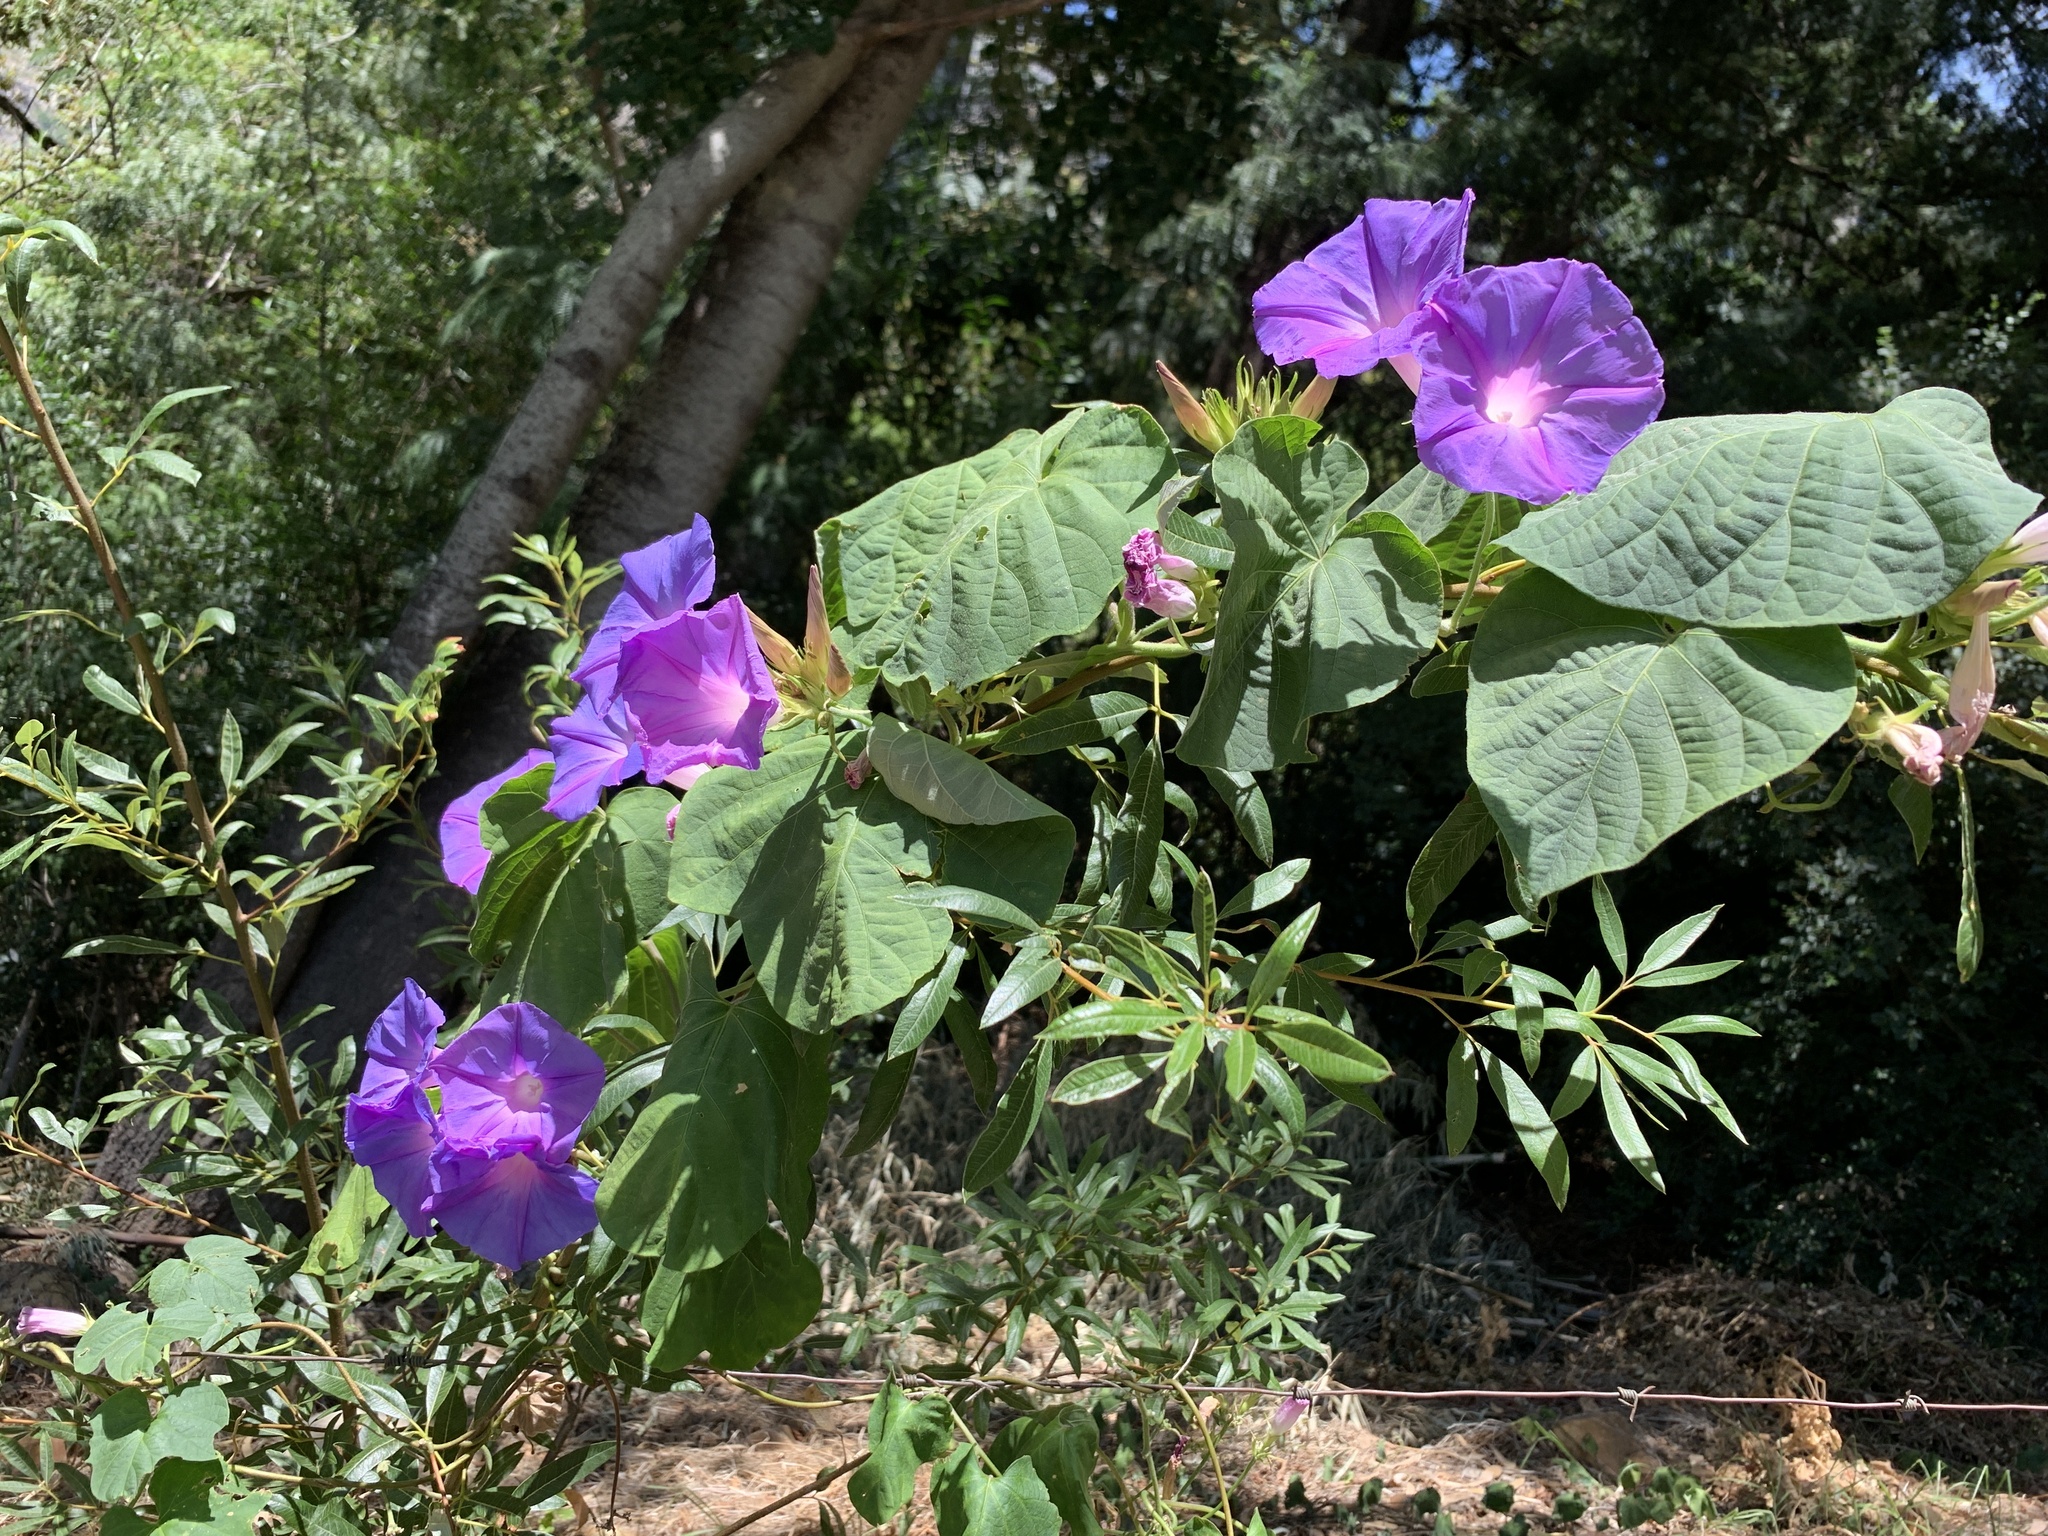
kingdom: Plantae
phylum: Tracheophyta
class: Magnoliopsida
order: Solanales
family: Convolvulaceae
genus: Ipomoea
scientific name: Ipomoea indica
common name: Blue dawnflower
